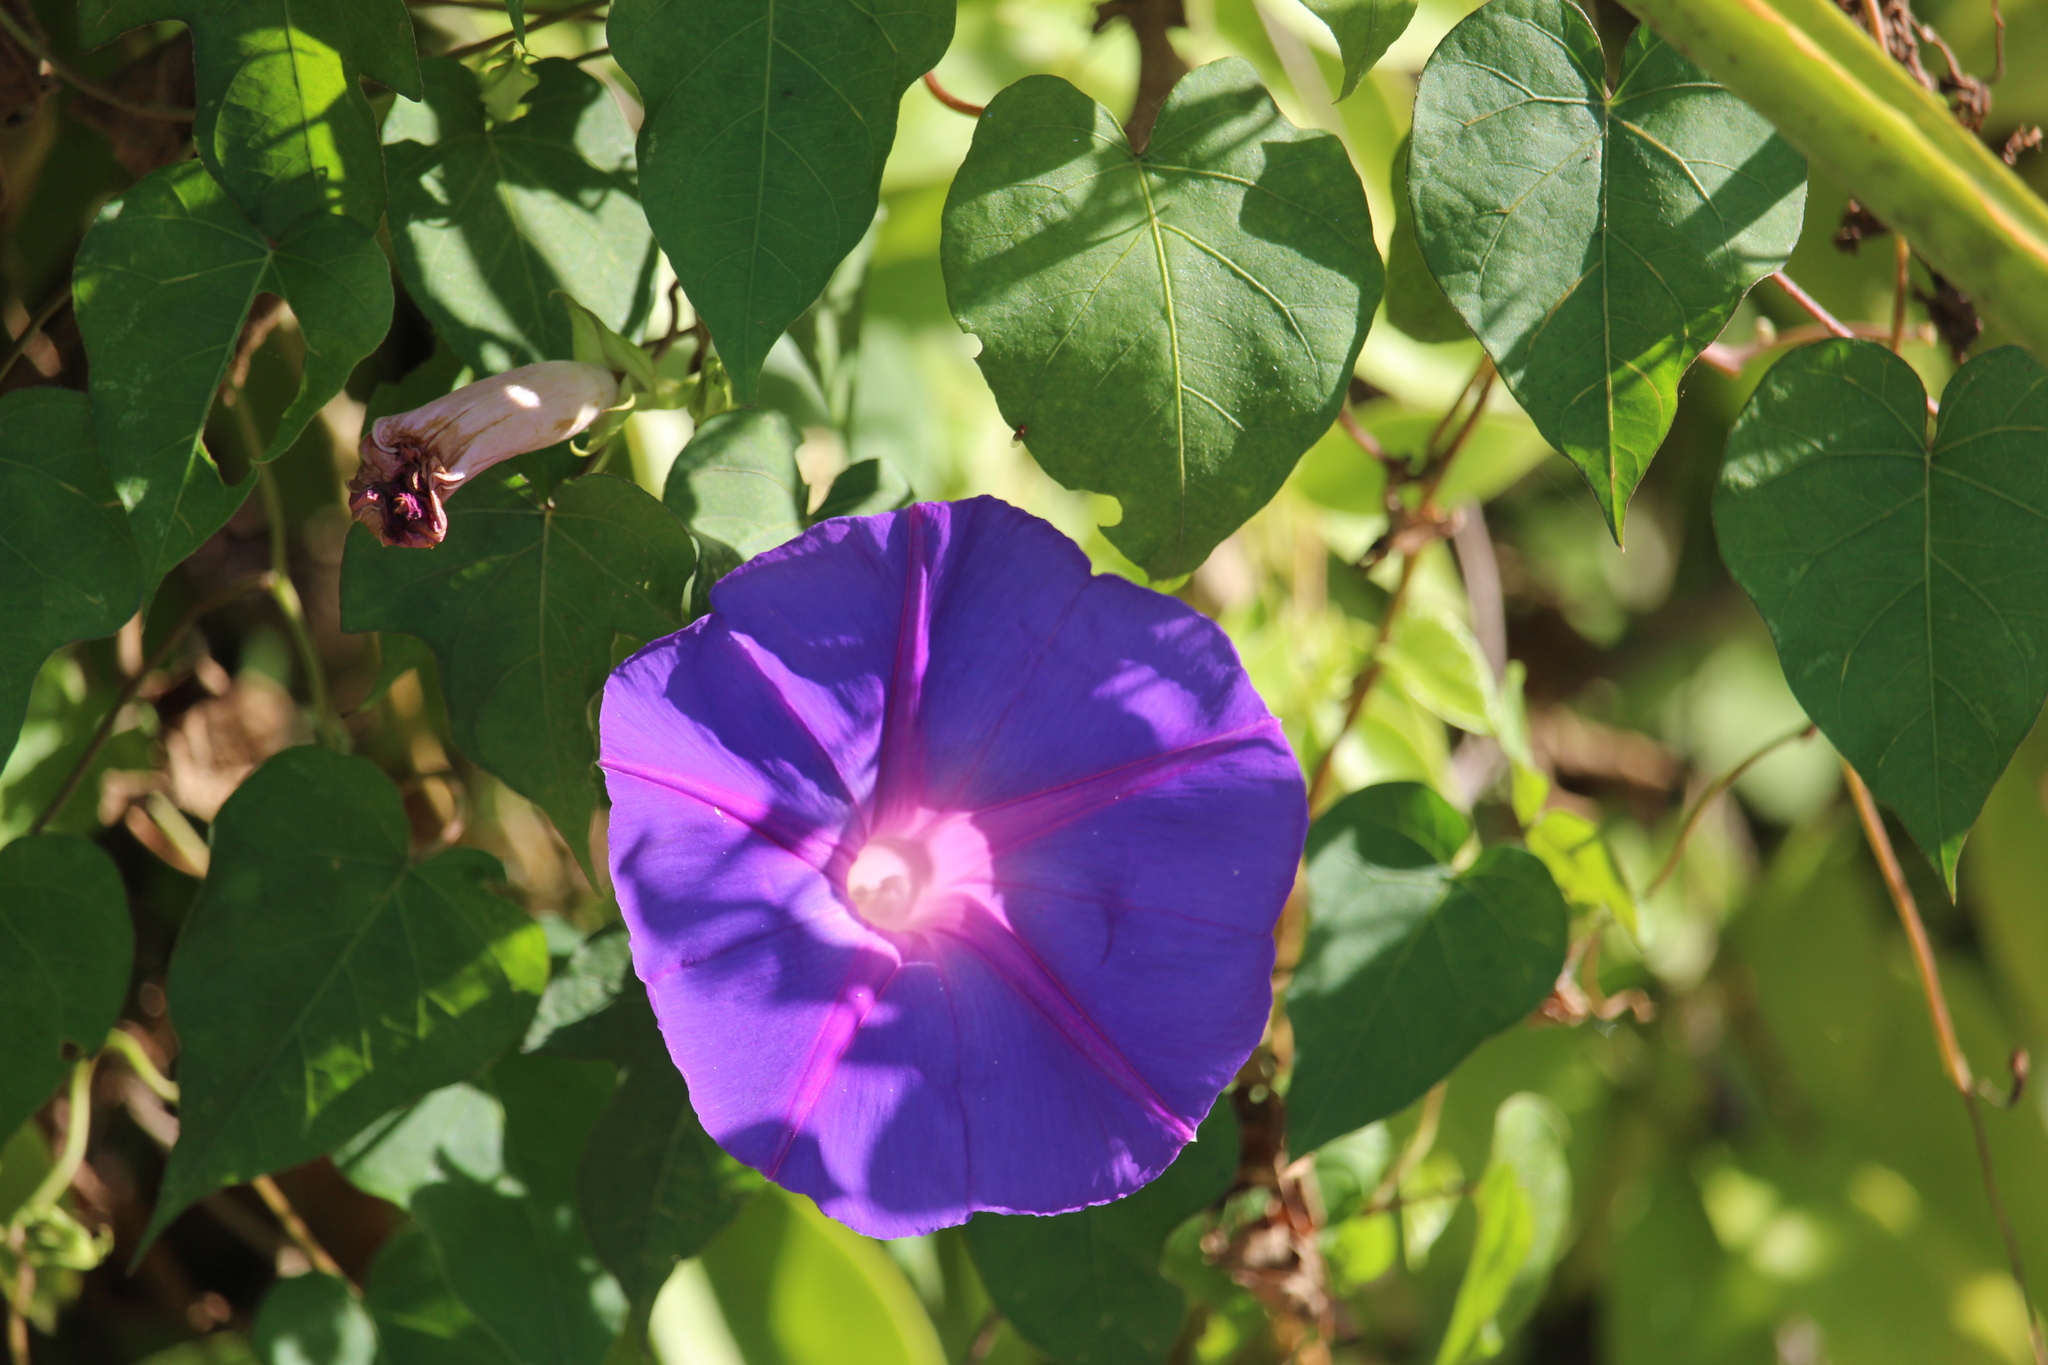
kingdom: Plantae
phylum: Tracheophyta
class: Magnoliopsida
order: Solanales
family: Convolvulaceae
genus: Ipomoea
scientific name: Ipomoea indica
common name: Blue dawnflower
